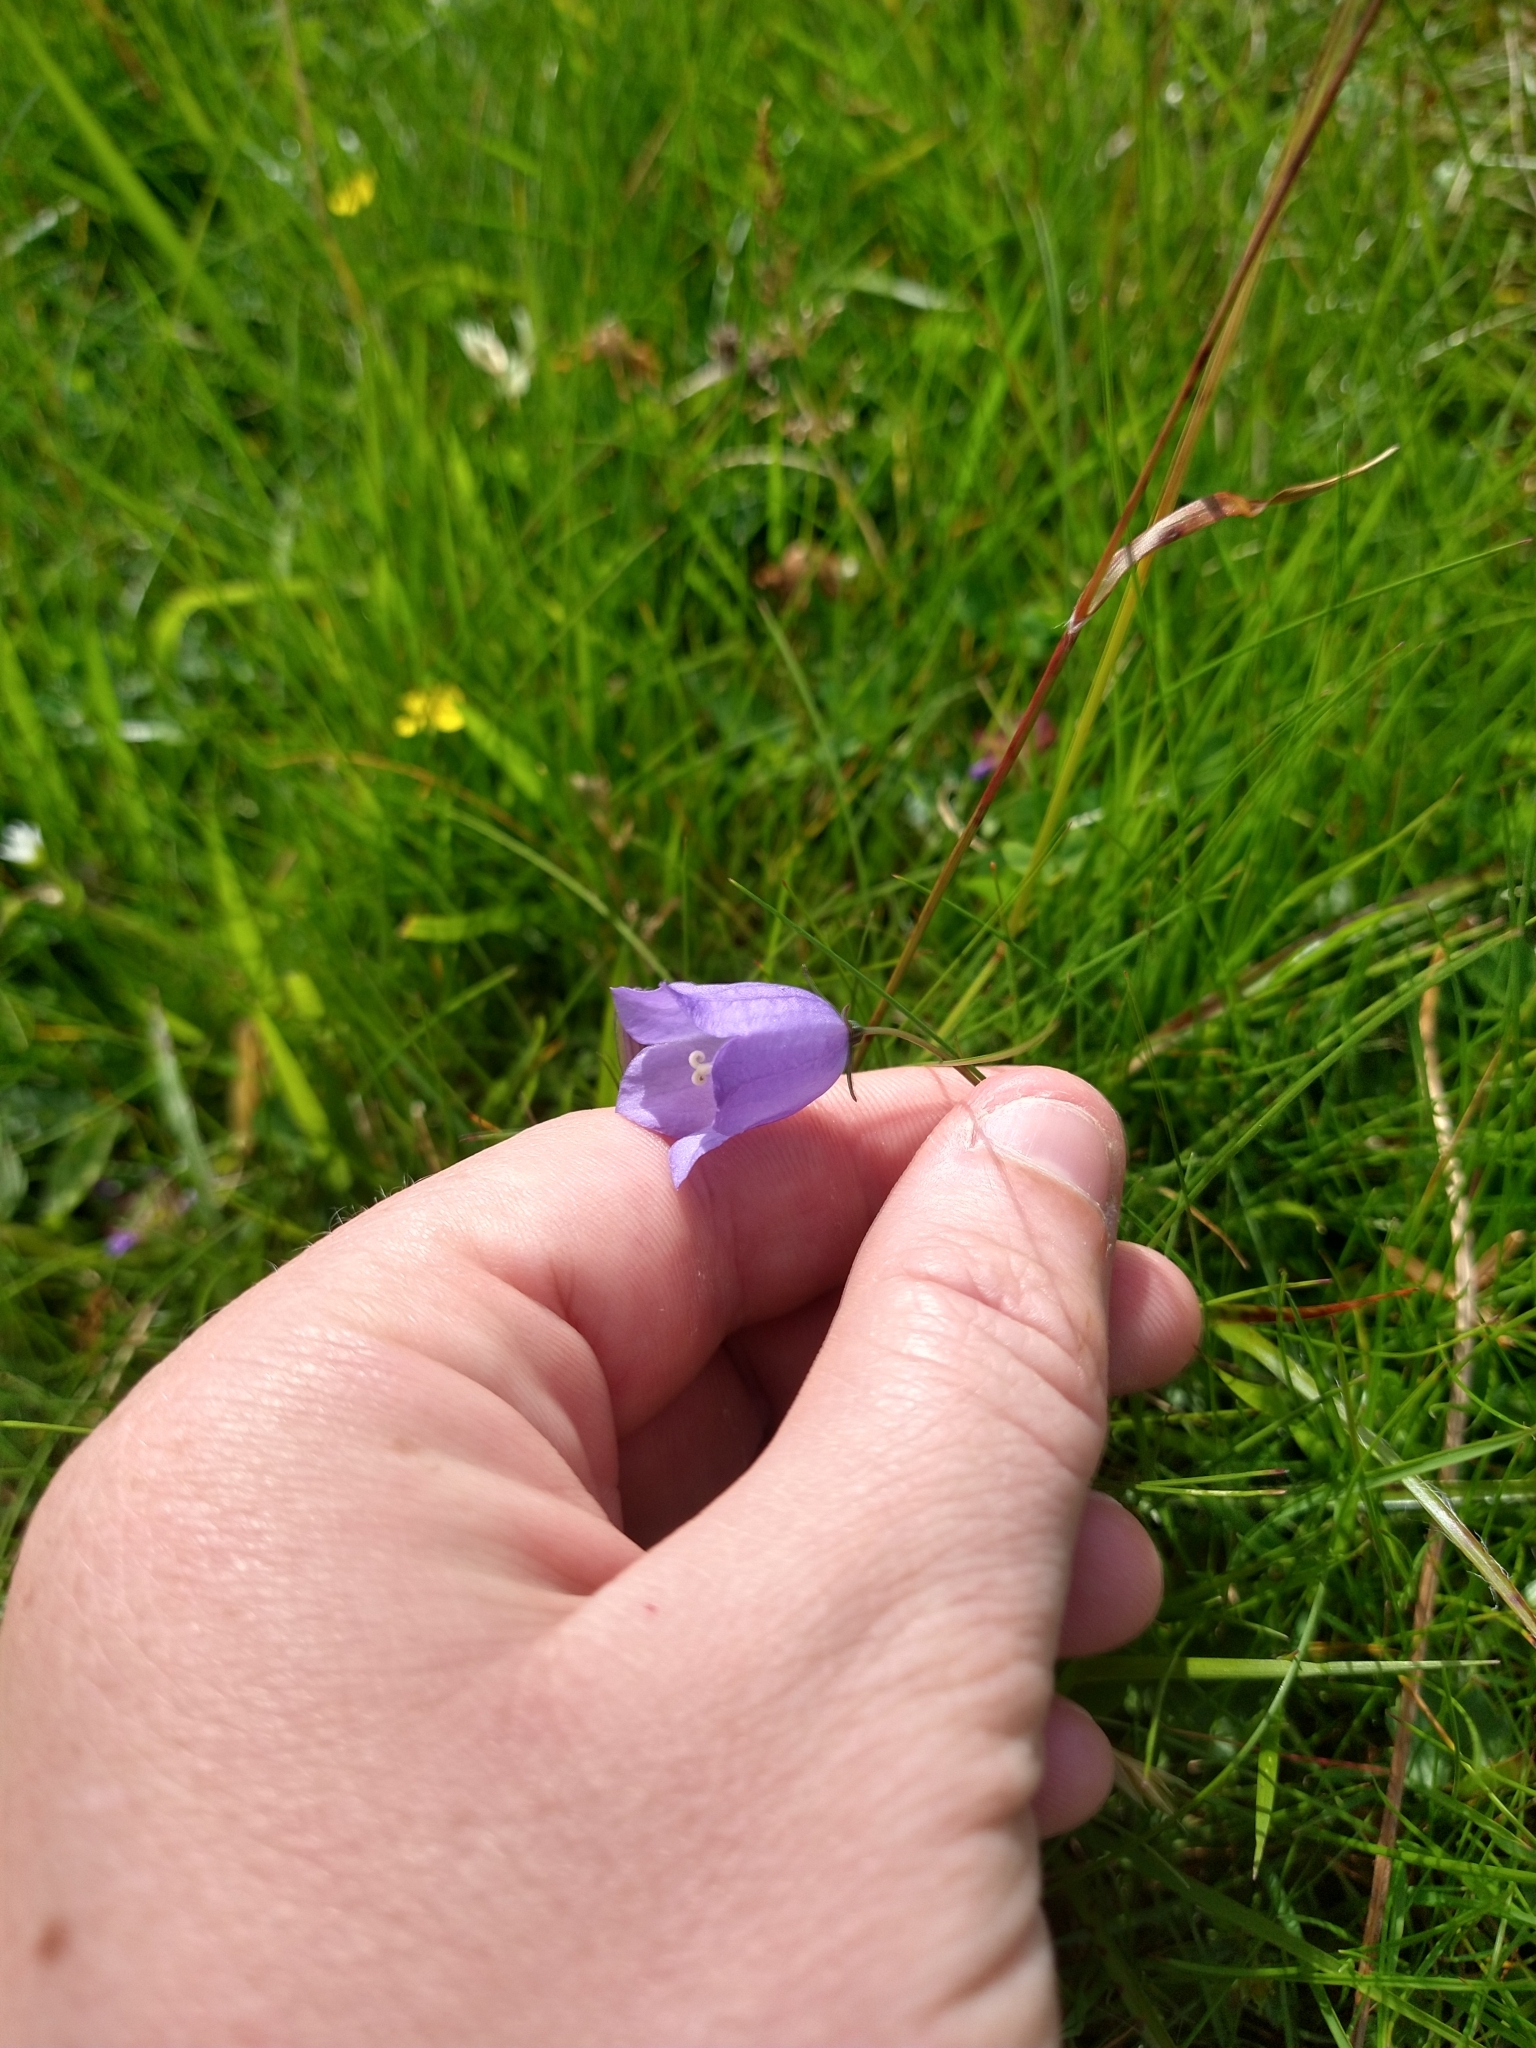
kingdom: Plantae
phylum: Tracheophyta
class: Magnoliopsida
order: Asterales
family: Campanulaceae
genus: Campanula
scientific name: Campanula rotundifolia
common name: Harebell
